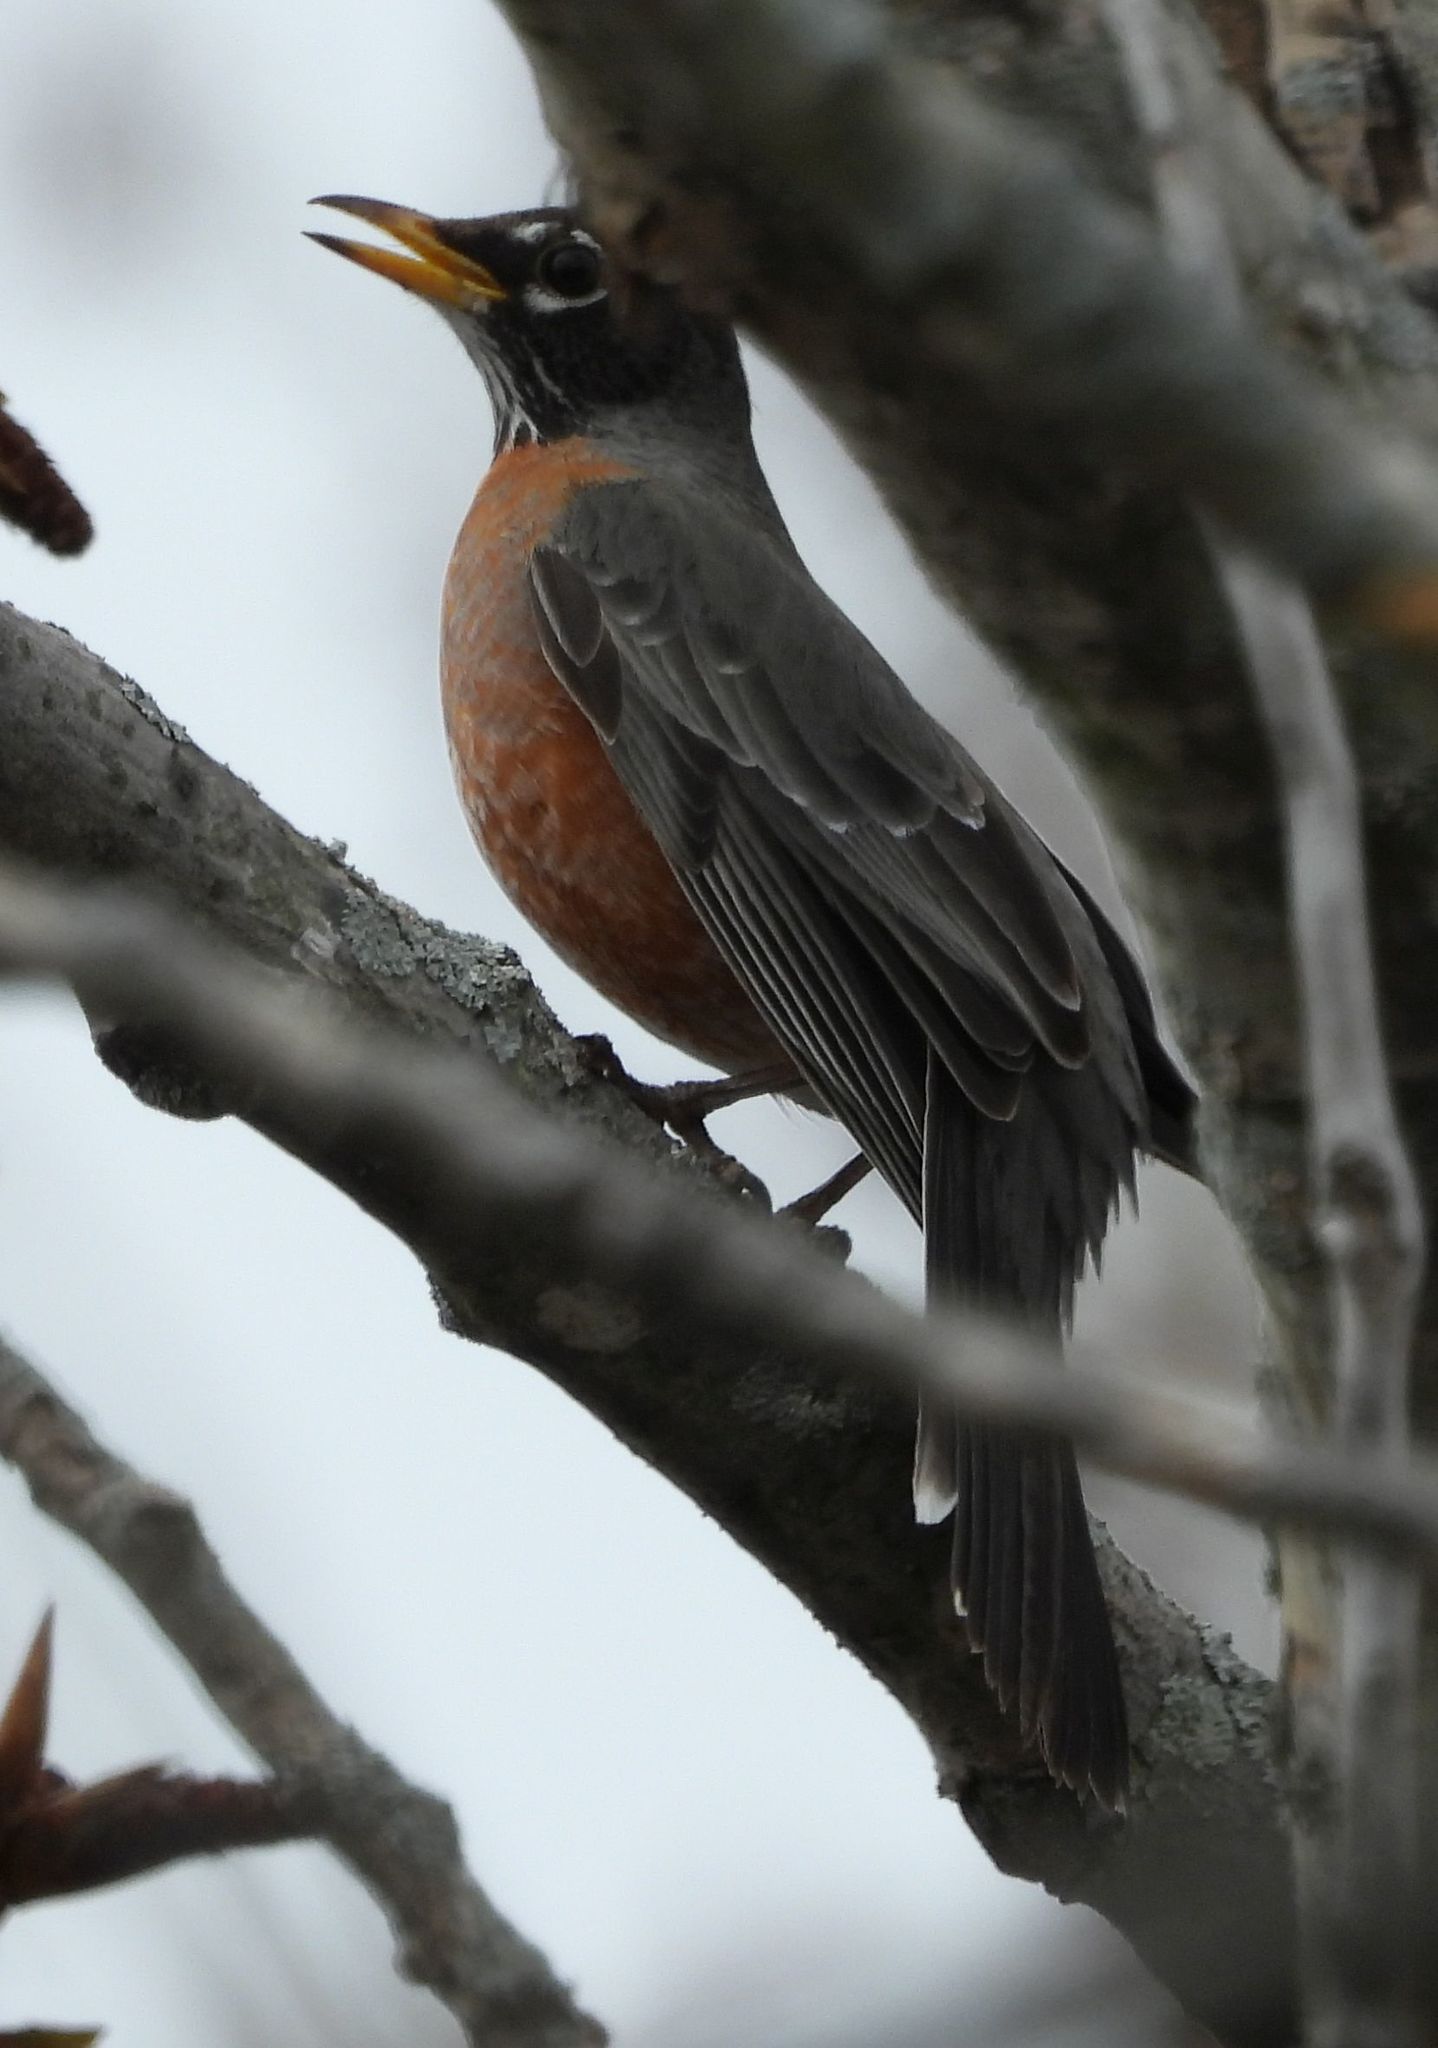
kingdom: Animalia
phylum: Chordata
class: Aves
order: Passeriformes
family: Turdidae
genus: Turdus
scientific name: Turdus migratorius
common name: American robin
